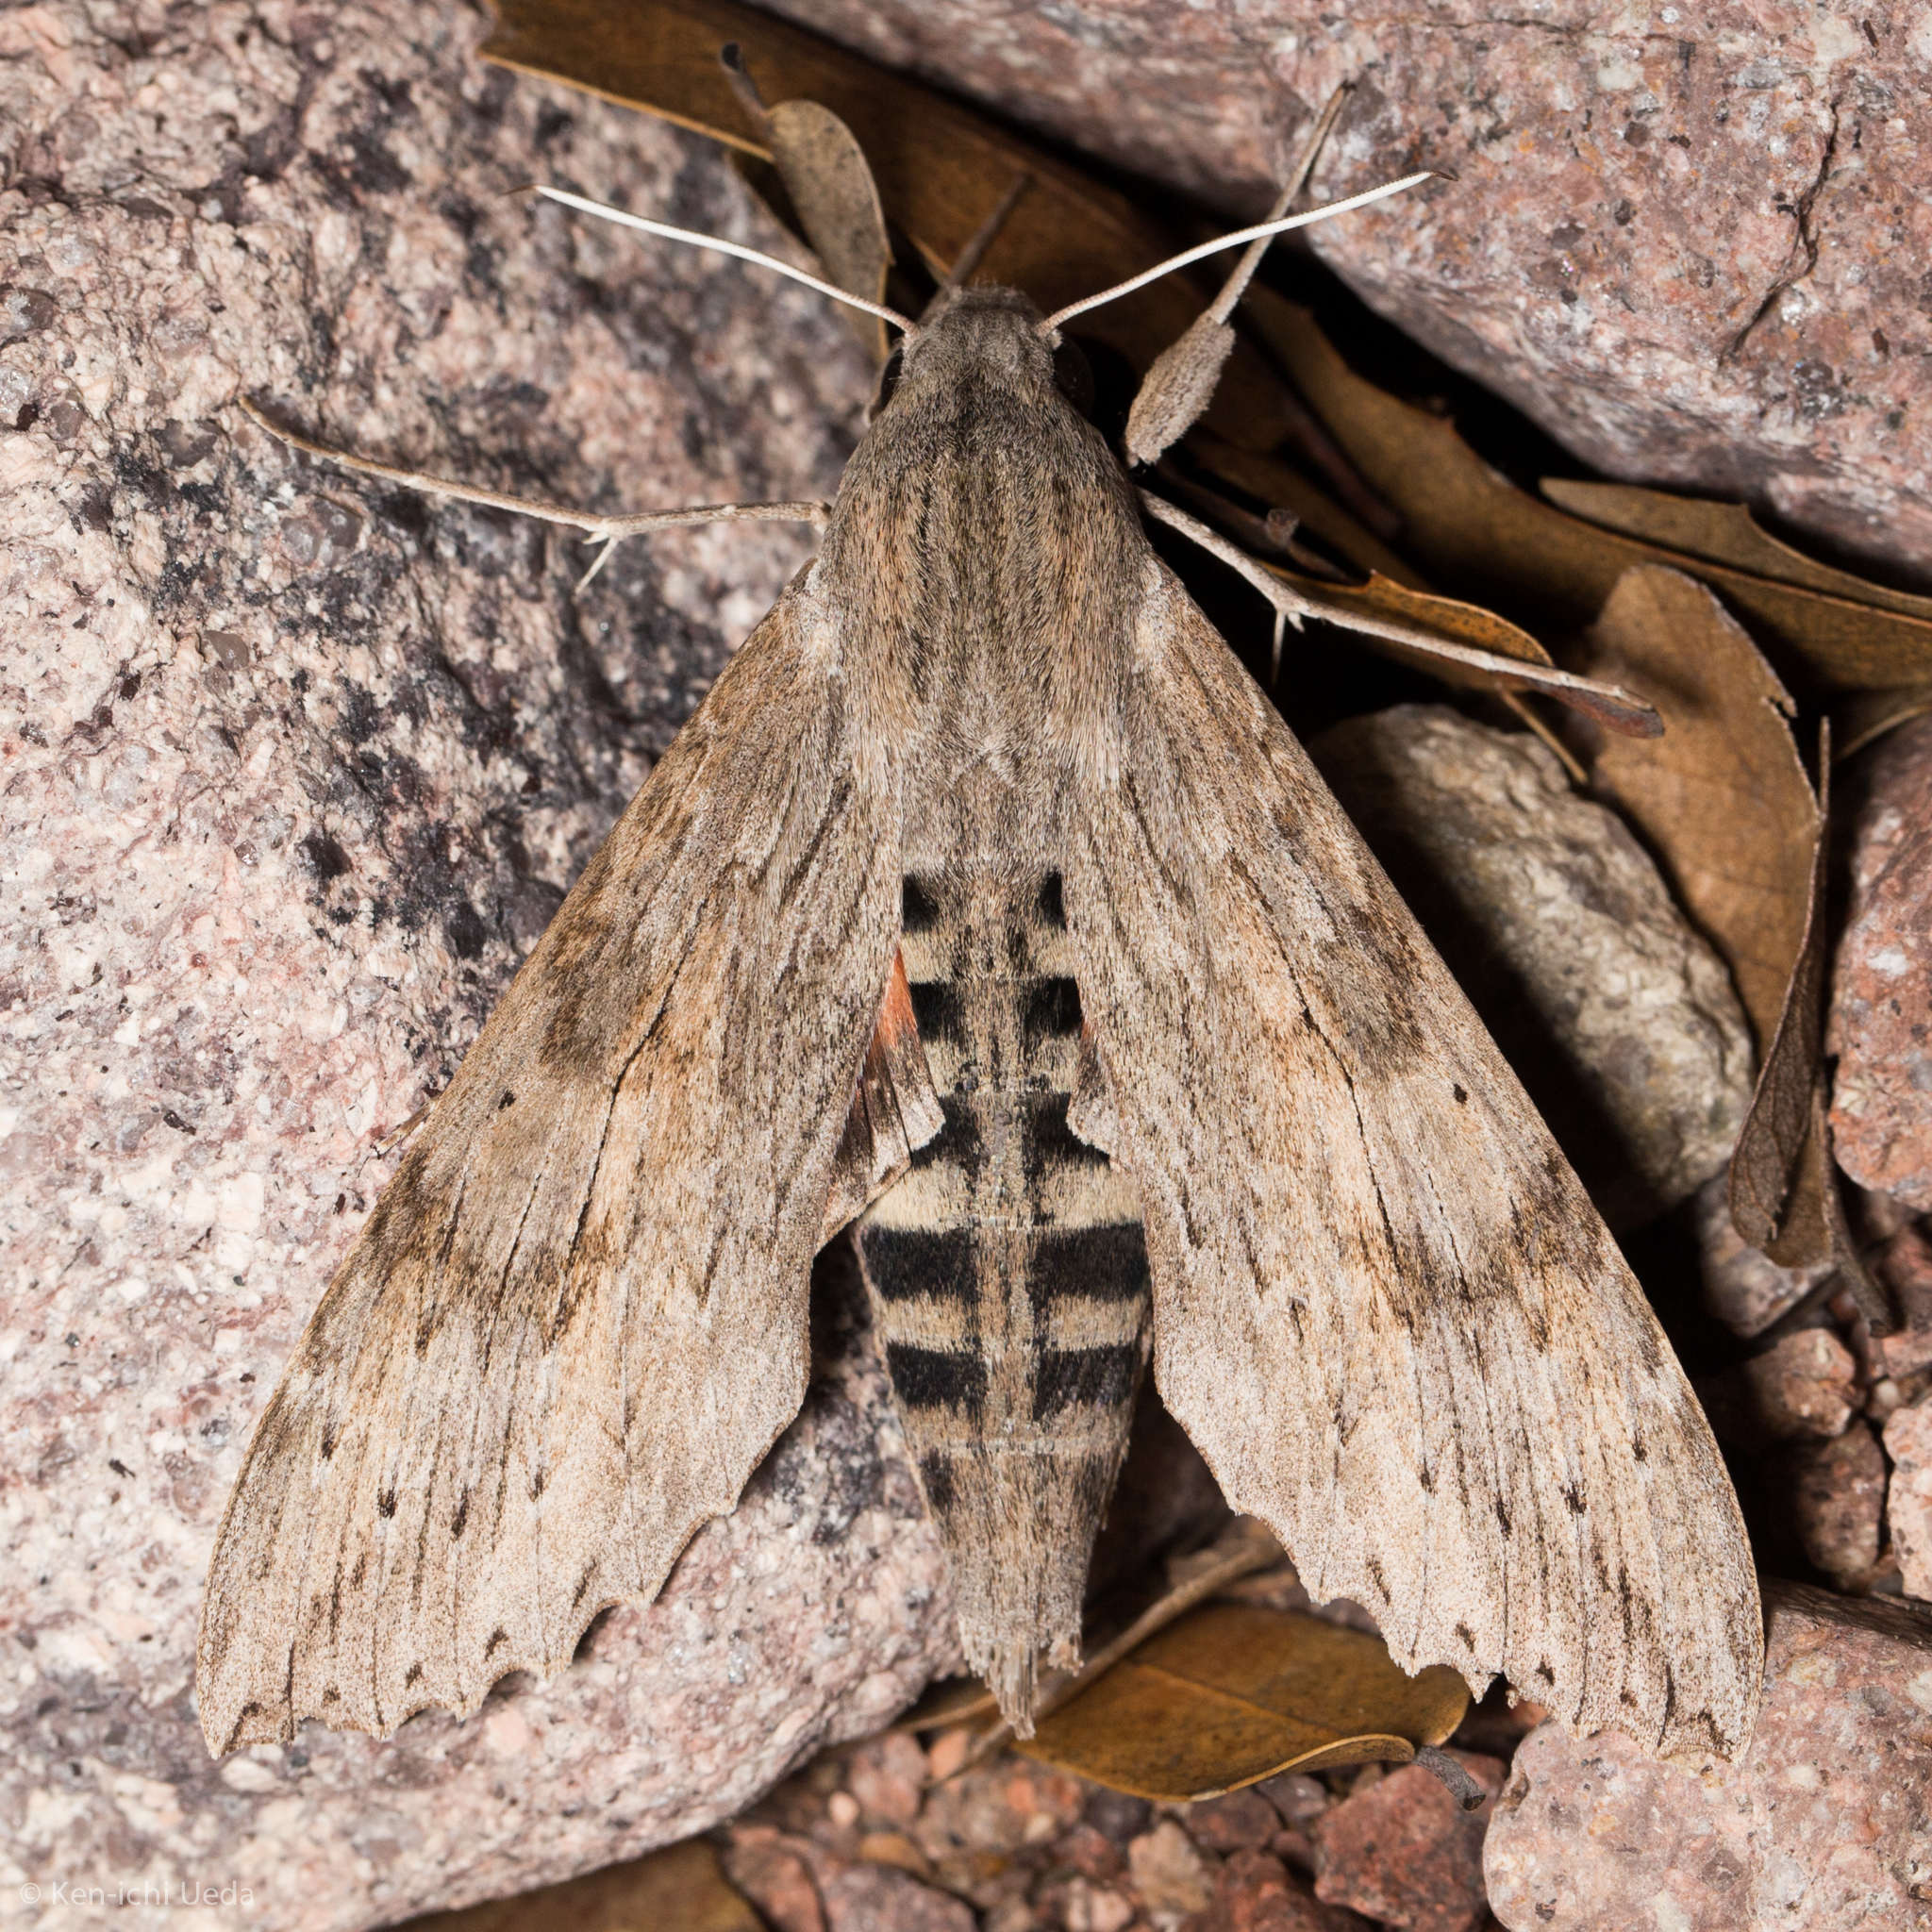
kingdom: Animalia
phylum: Arthropoda
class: Insecta
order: Lepidoptera
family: Sphingidae
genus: Erinnyis
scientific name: Erinnyis ello
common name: Ello sphinx
